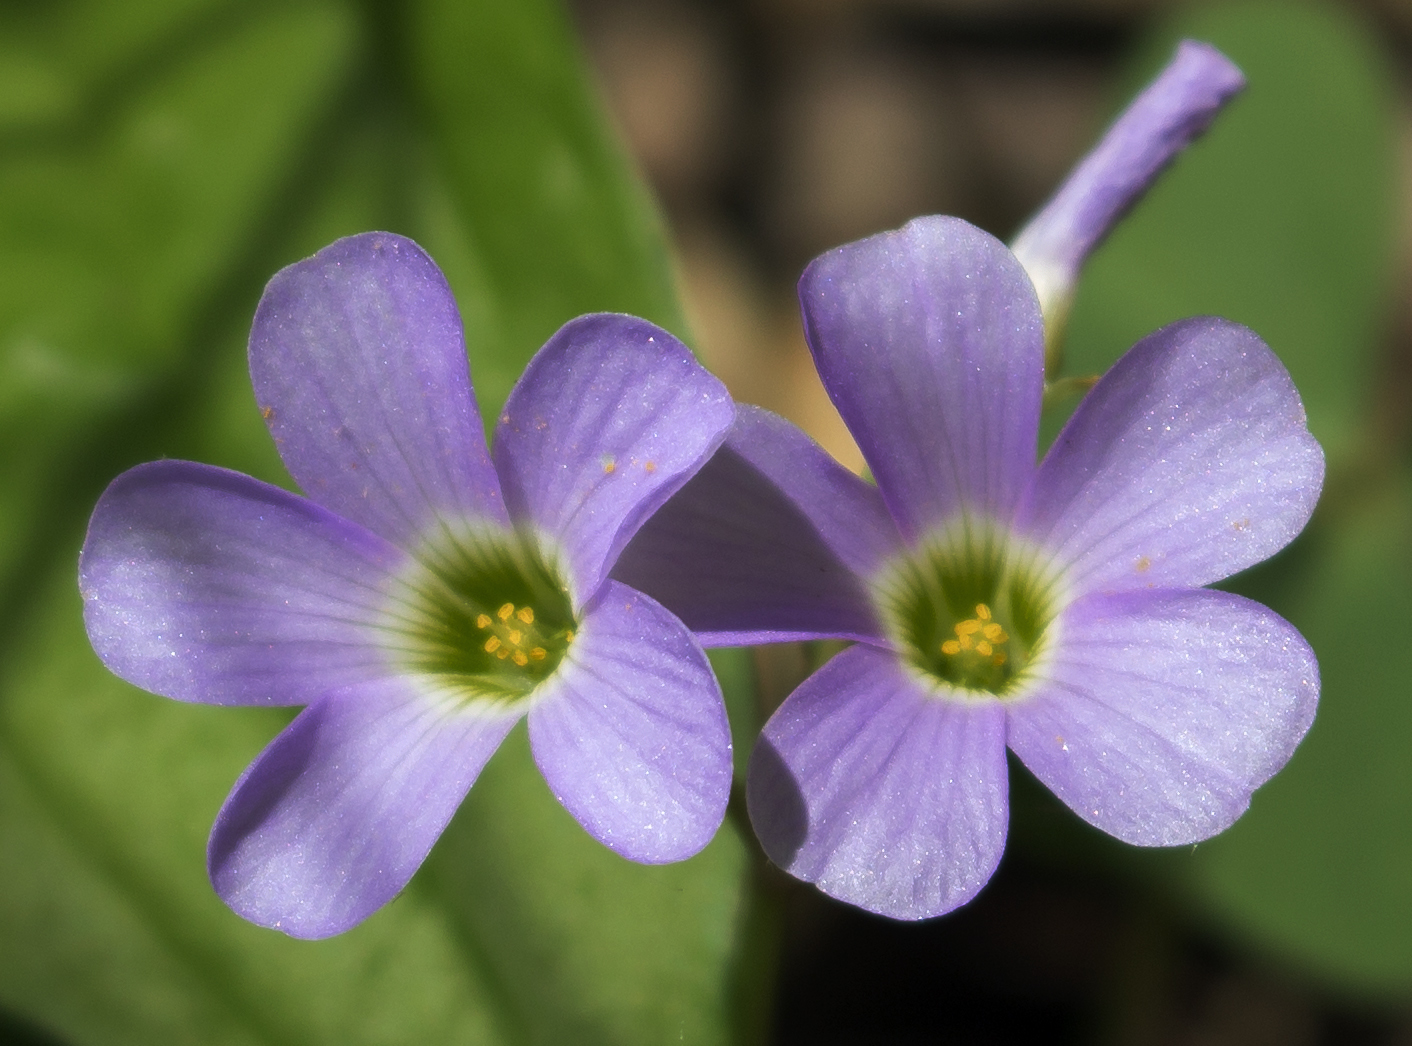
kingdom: Plantae
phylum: Tracheophyta
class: Magnoliopsida
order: Oxalidales
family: Oxalidaceae
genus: Oxalis
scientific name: Oxalis violacea
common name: Violet wood-sorrel
